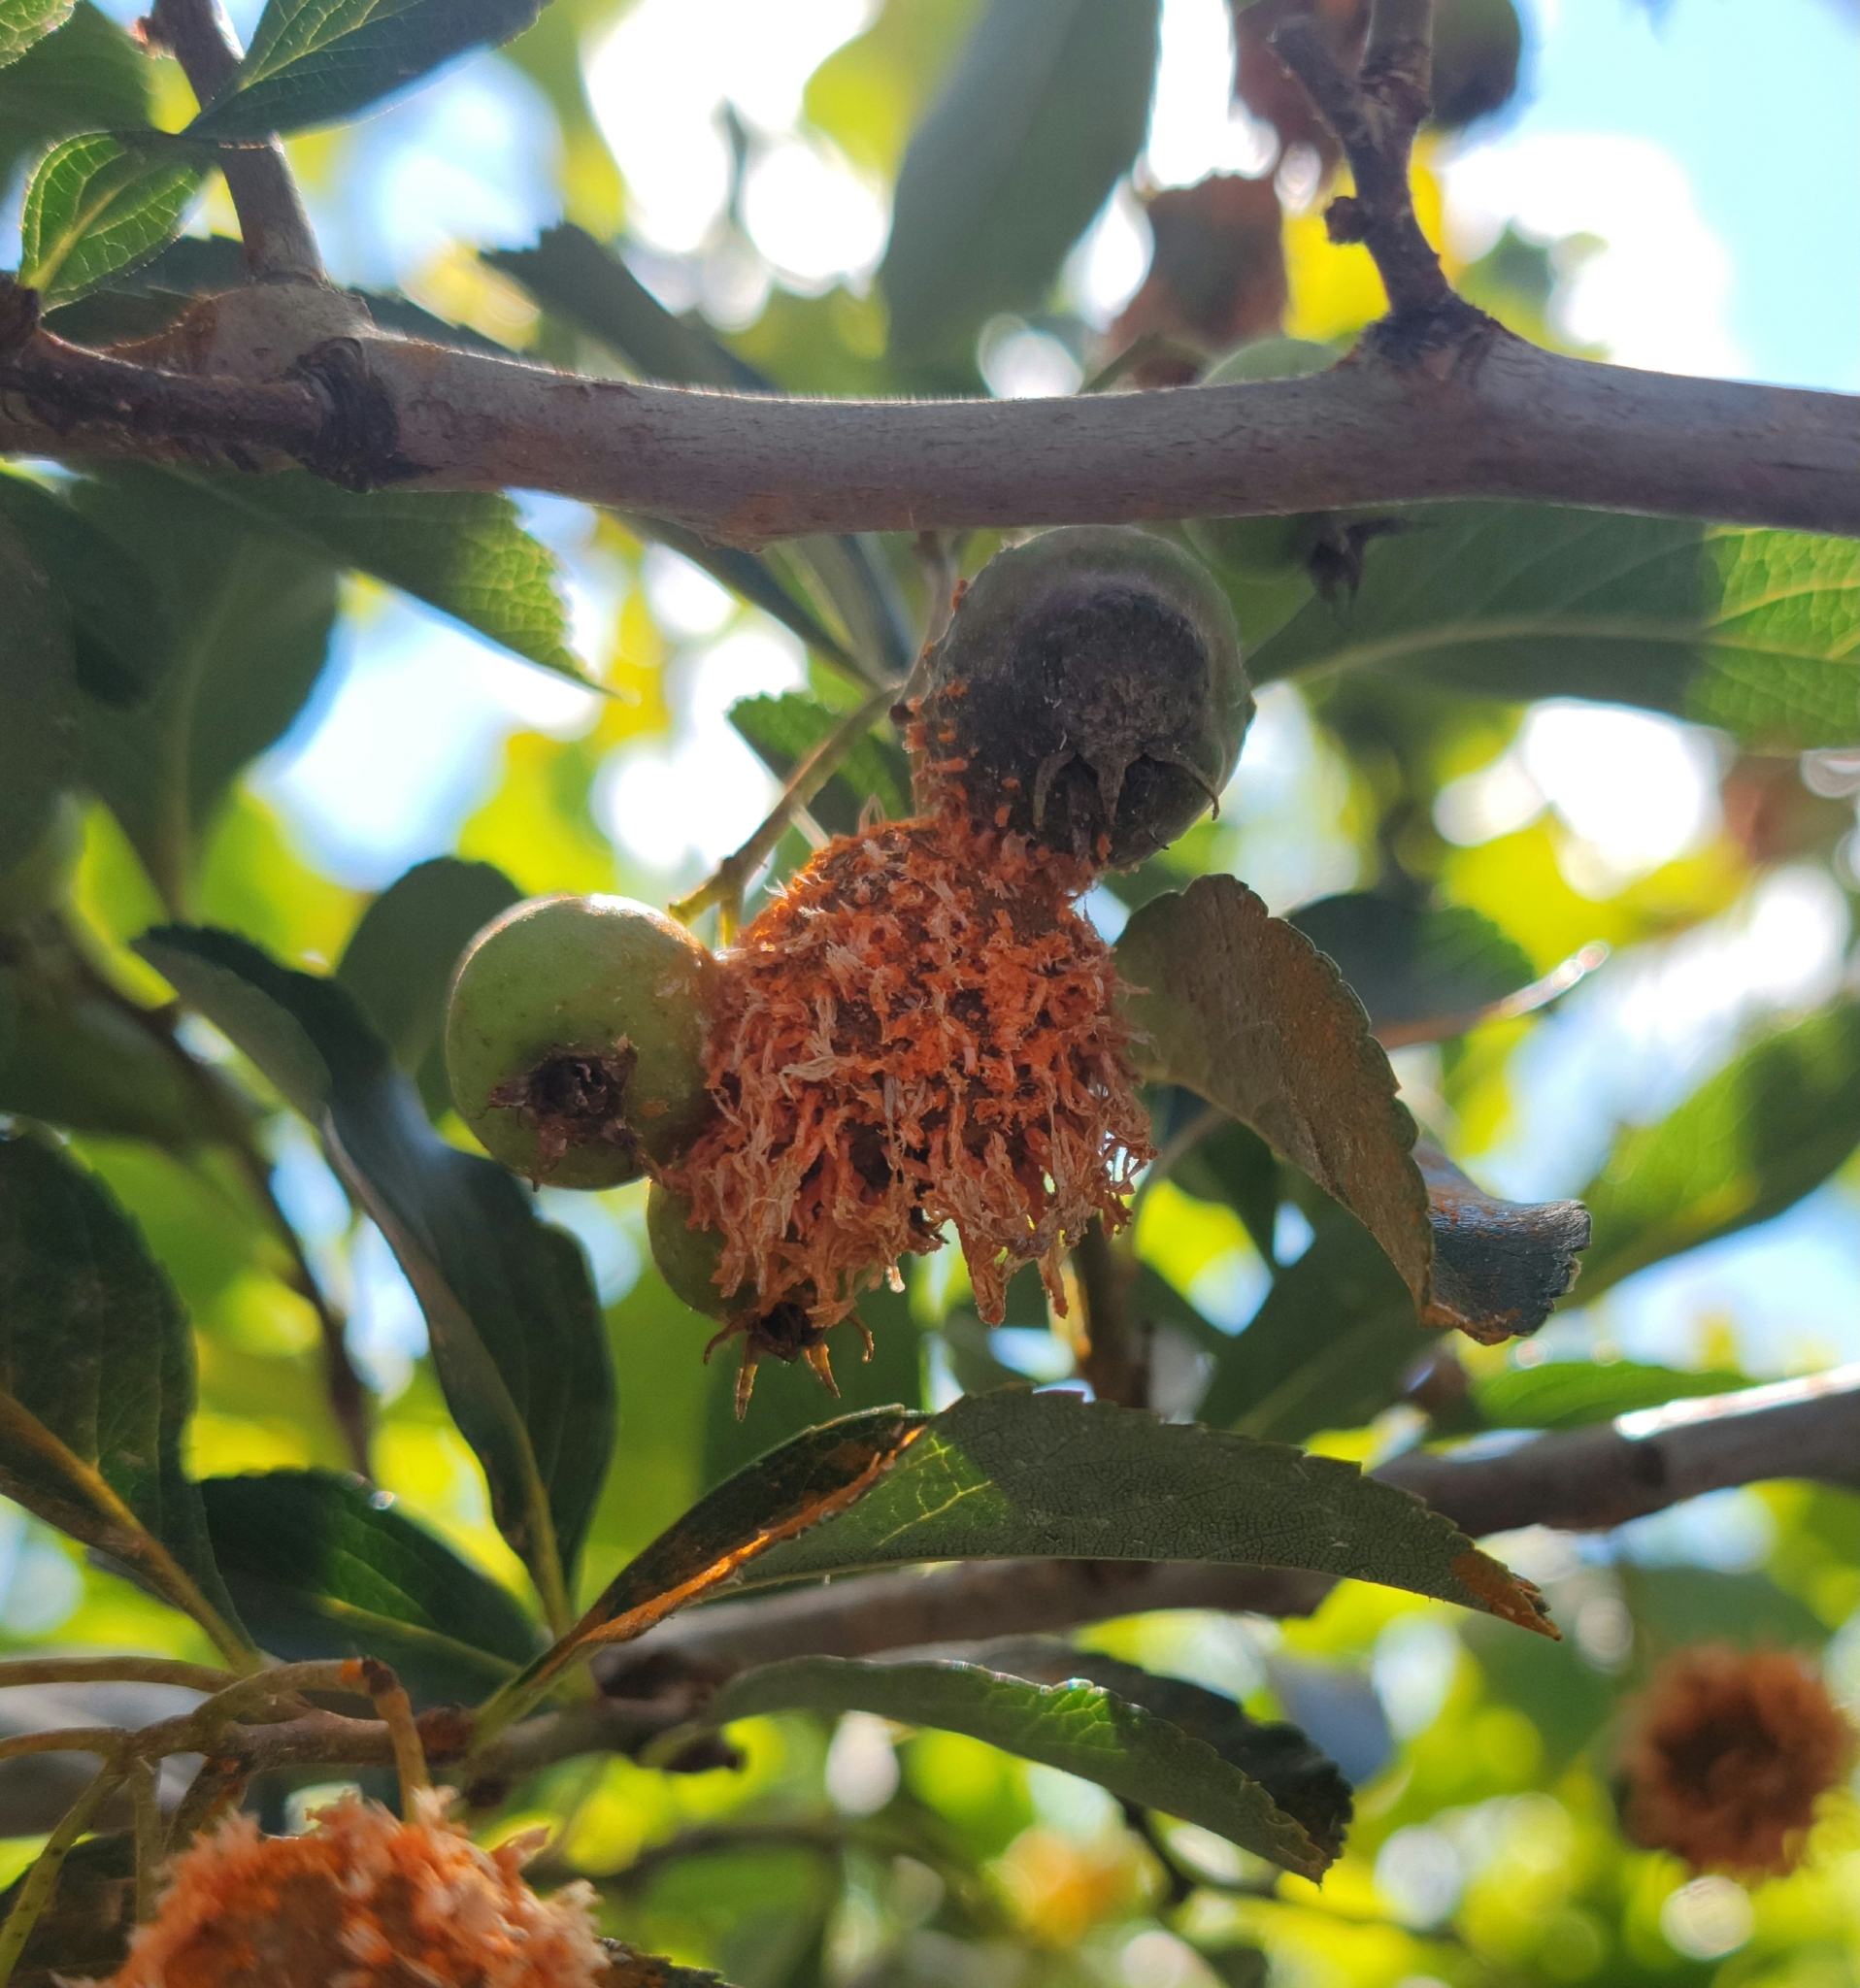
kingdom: Fungi
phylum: Basidiomycota
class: Pucciniomycetes
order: Pucciniales
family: Gymnosporangiaceae
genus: Gymnosporangium
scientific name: Gymnosporangium clavipes
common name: Quince rust
